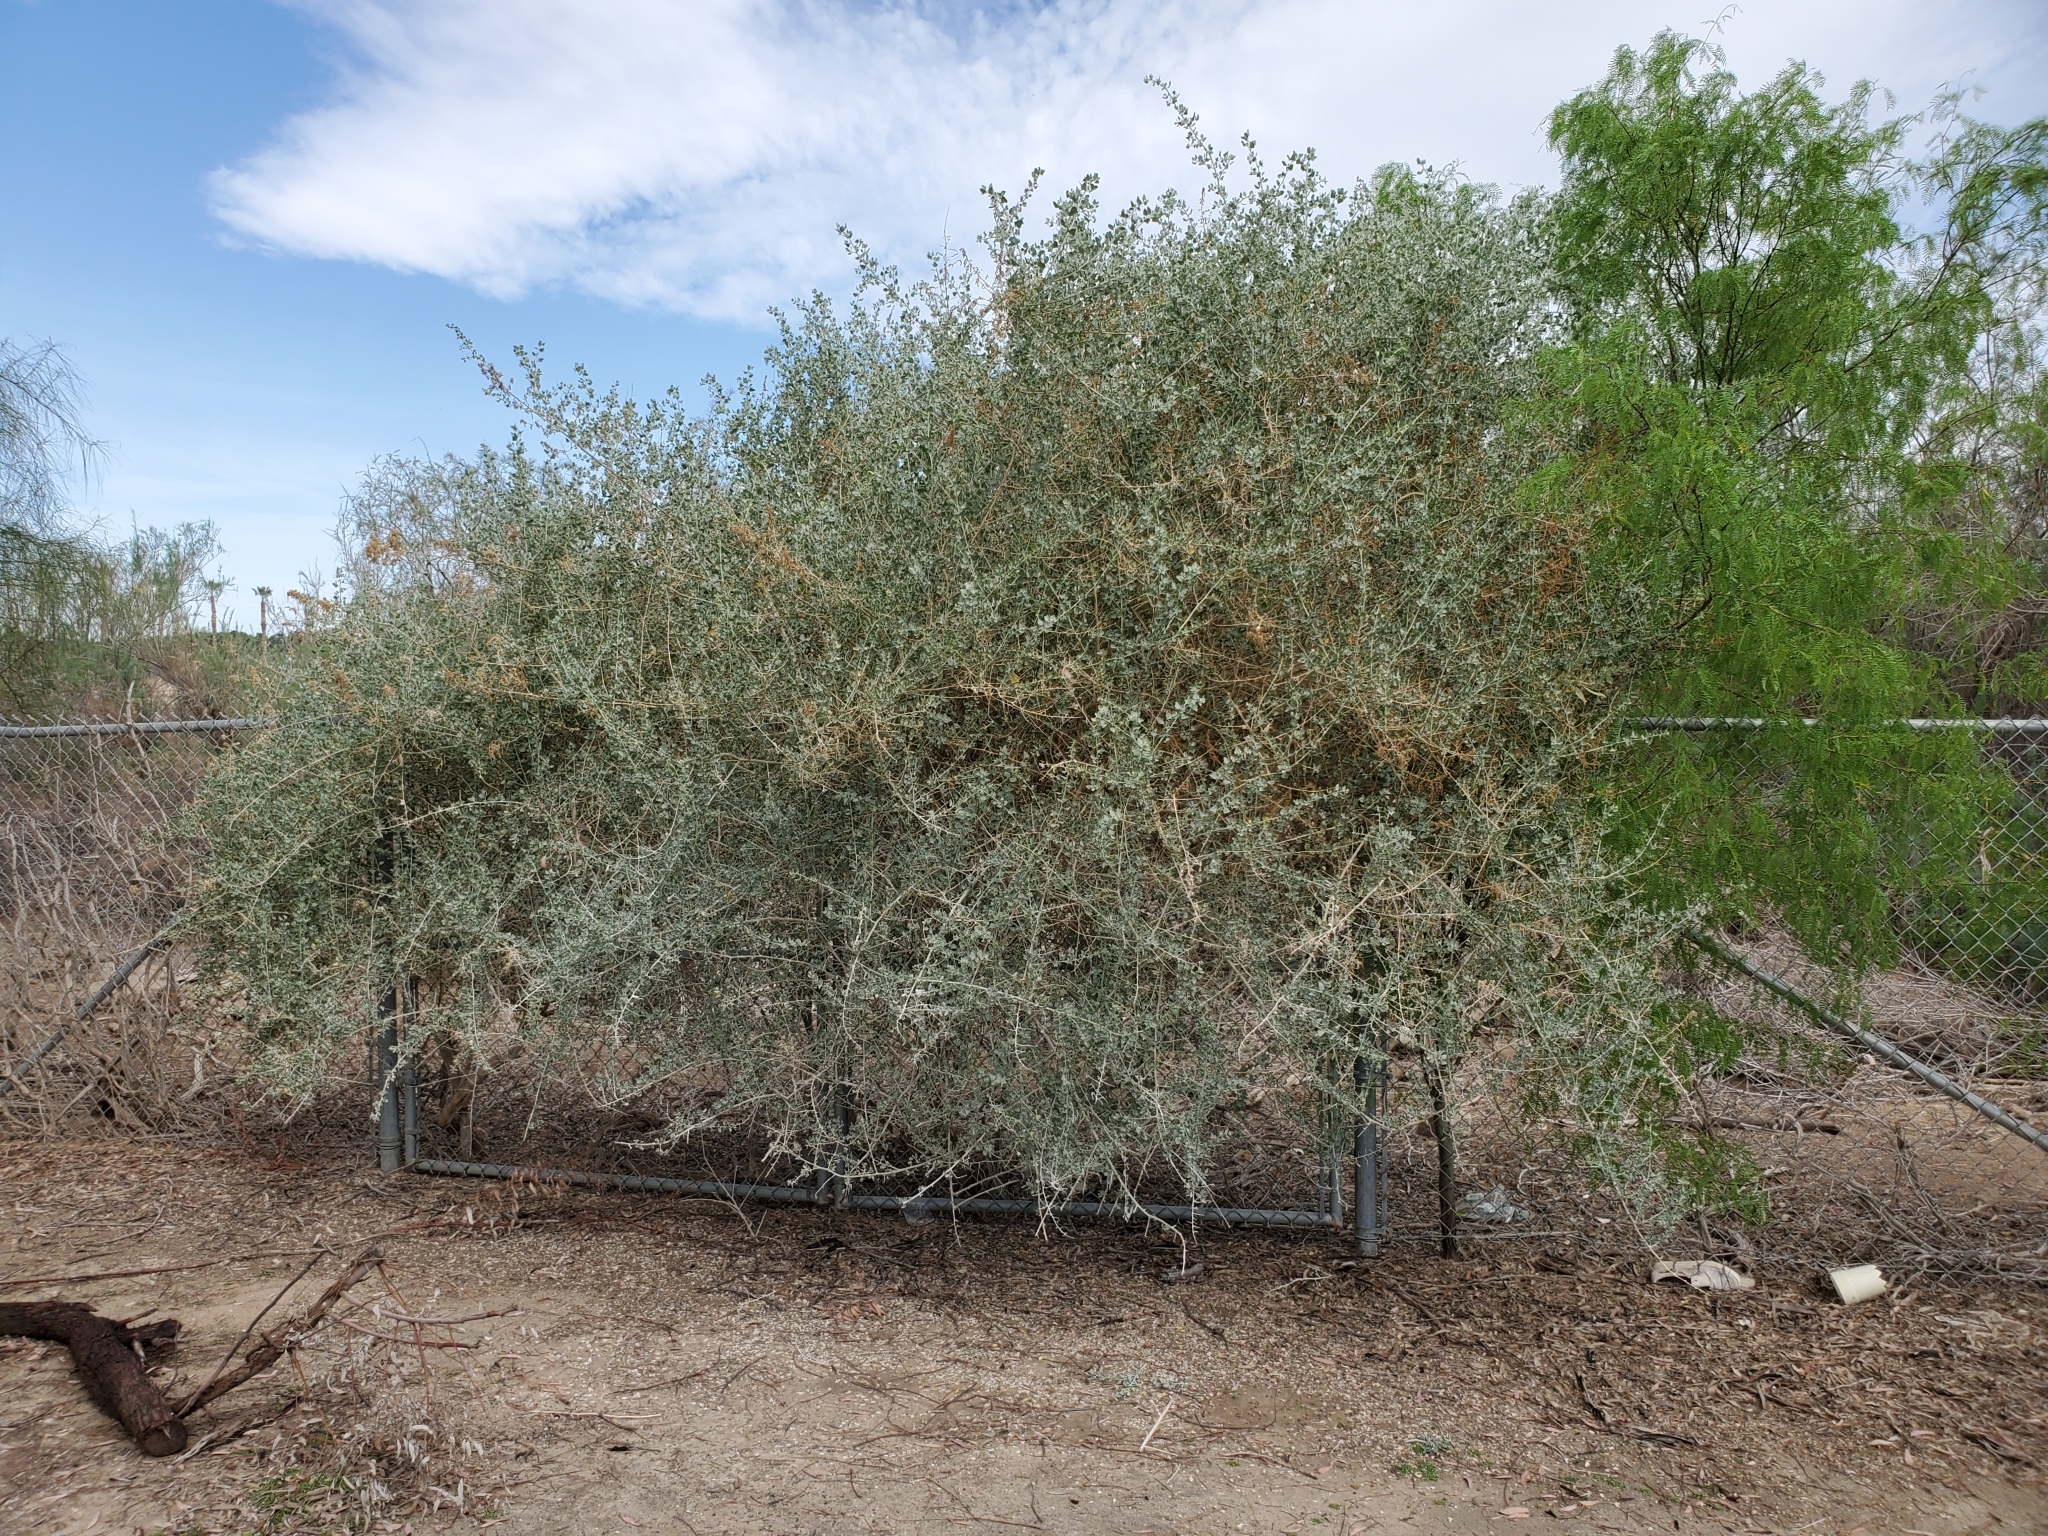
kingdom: Plantae
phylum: Tracheophyta
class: Magnoliopsida
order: Caryophyllales
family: Amaranthaceae
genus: Atriplex
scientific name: Atriplex lentiformis
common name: Big saltbush
